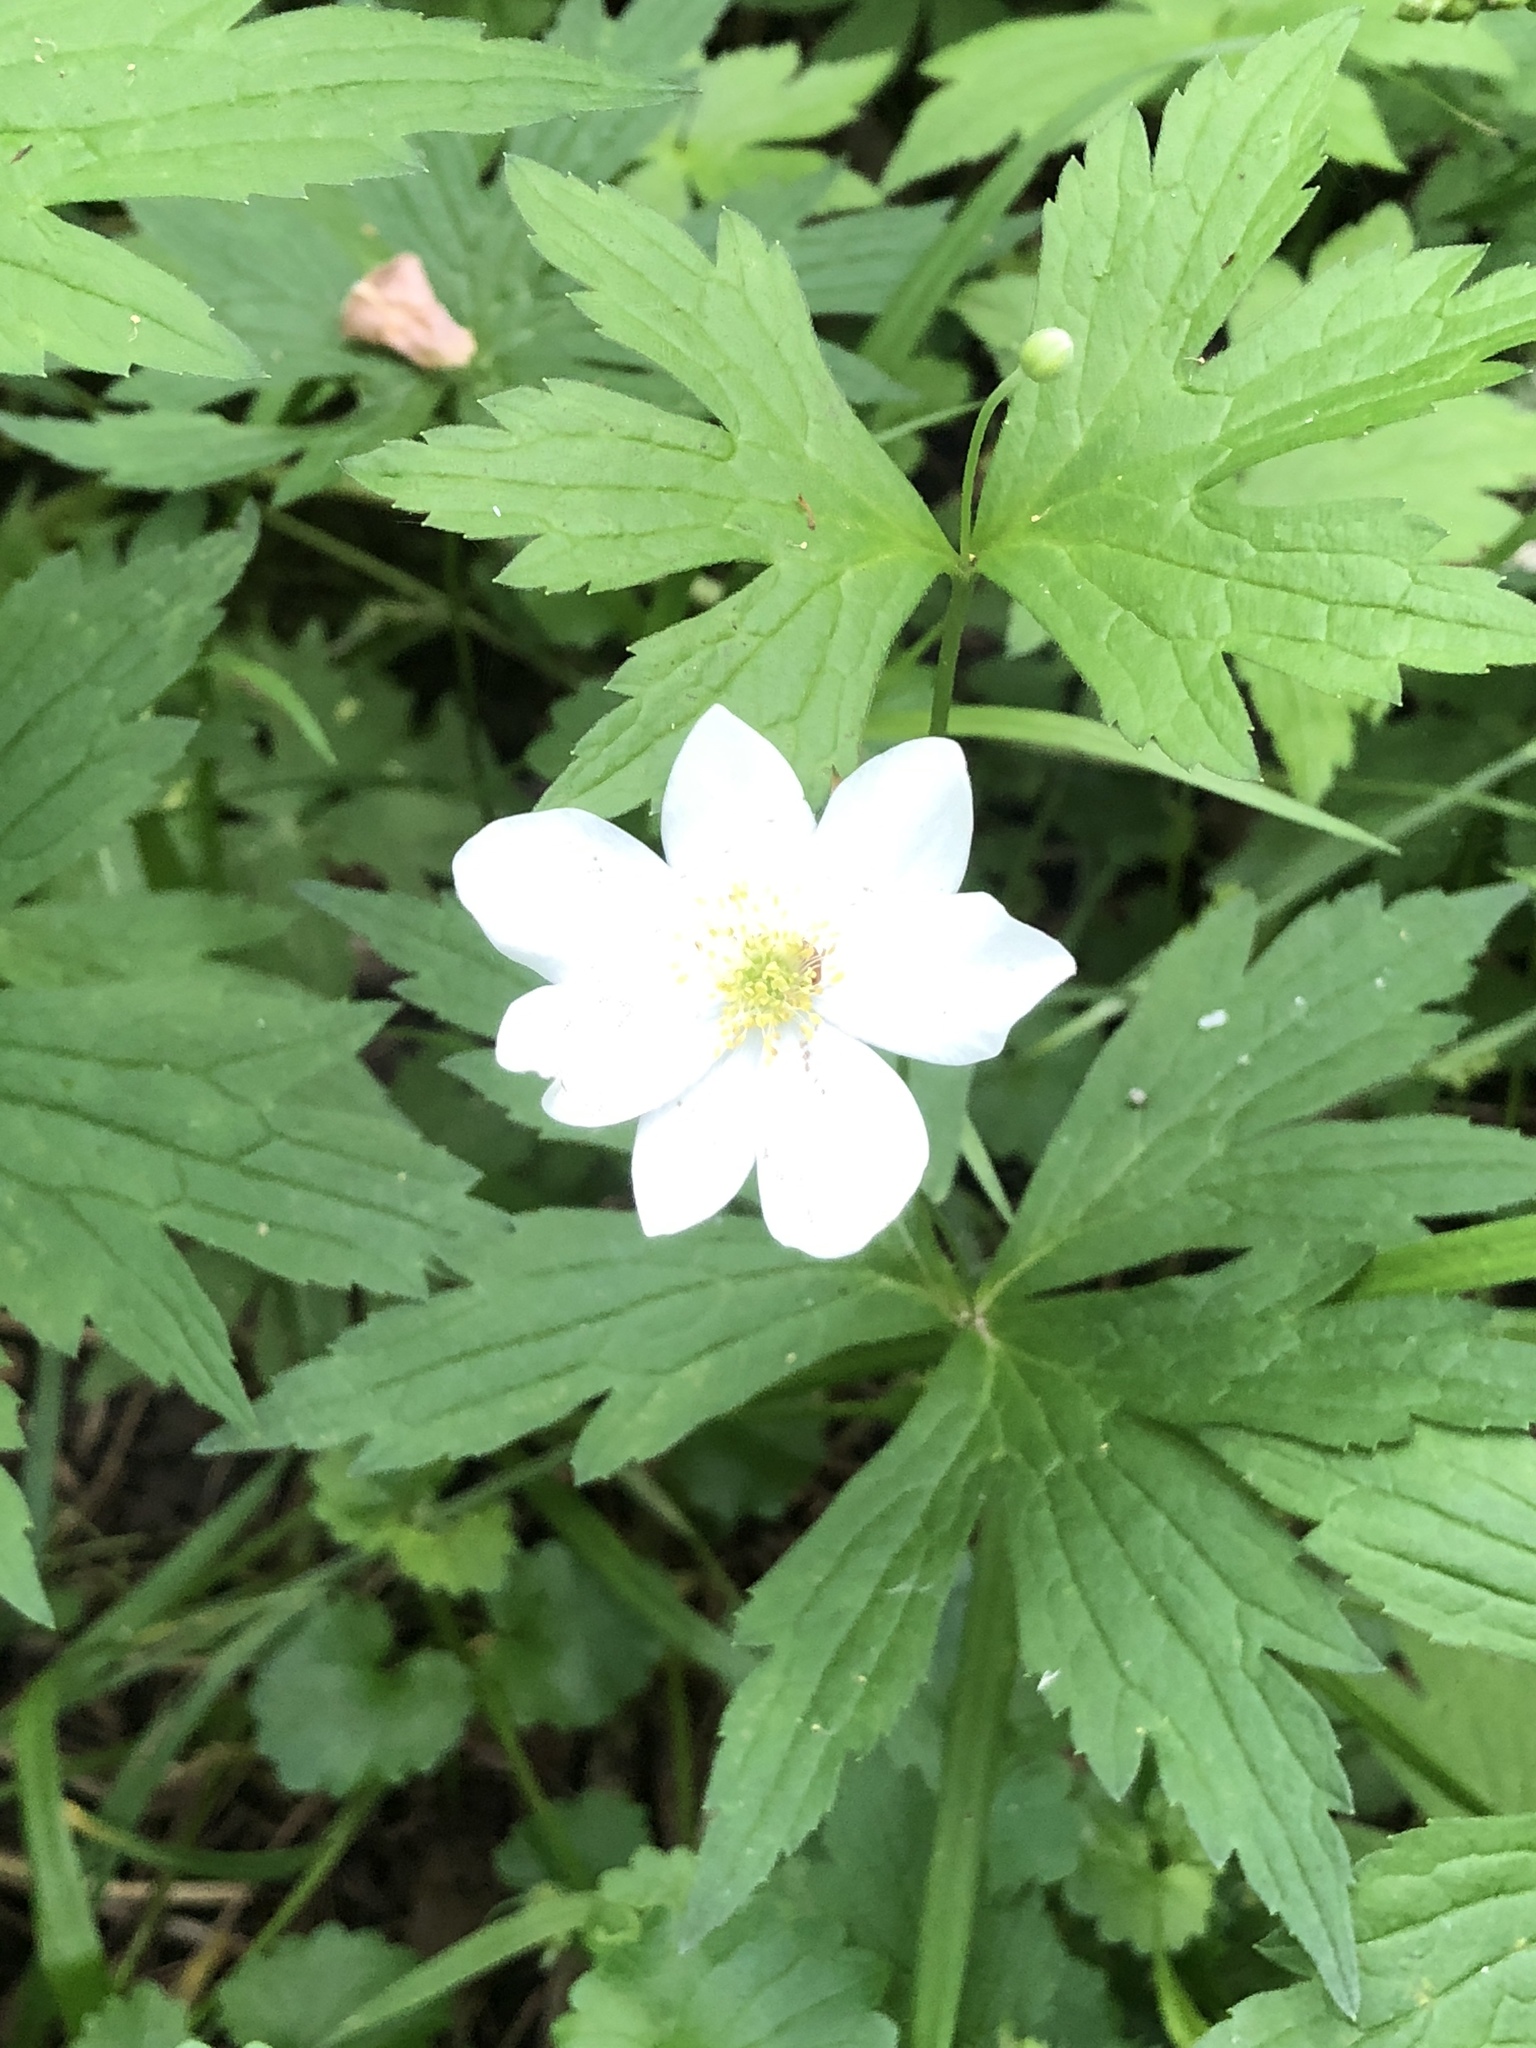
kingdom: Plantae
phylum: Tracheophyta
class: Magnoliopsida
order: Ranunculales
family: Ranunculaceae
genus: Anemonastrum
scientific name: Anemonastrum canadense
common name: Canada anemone
